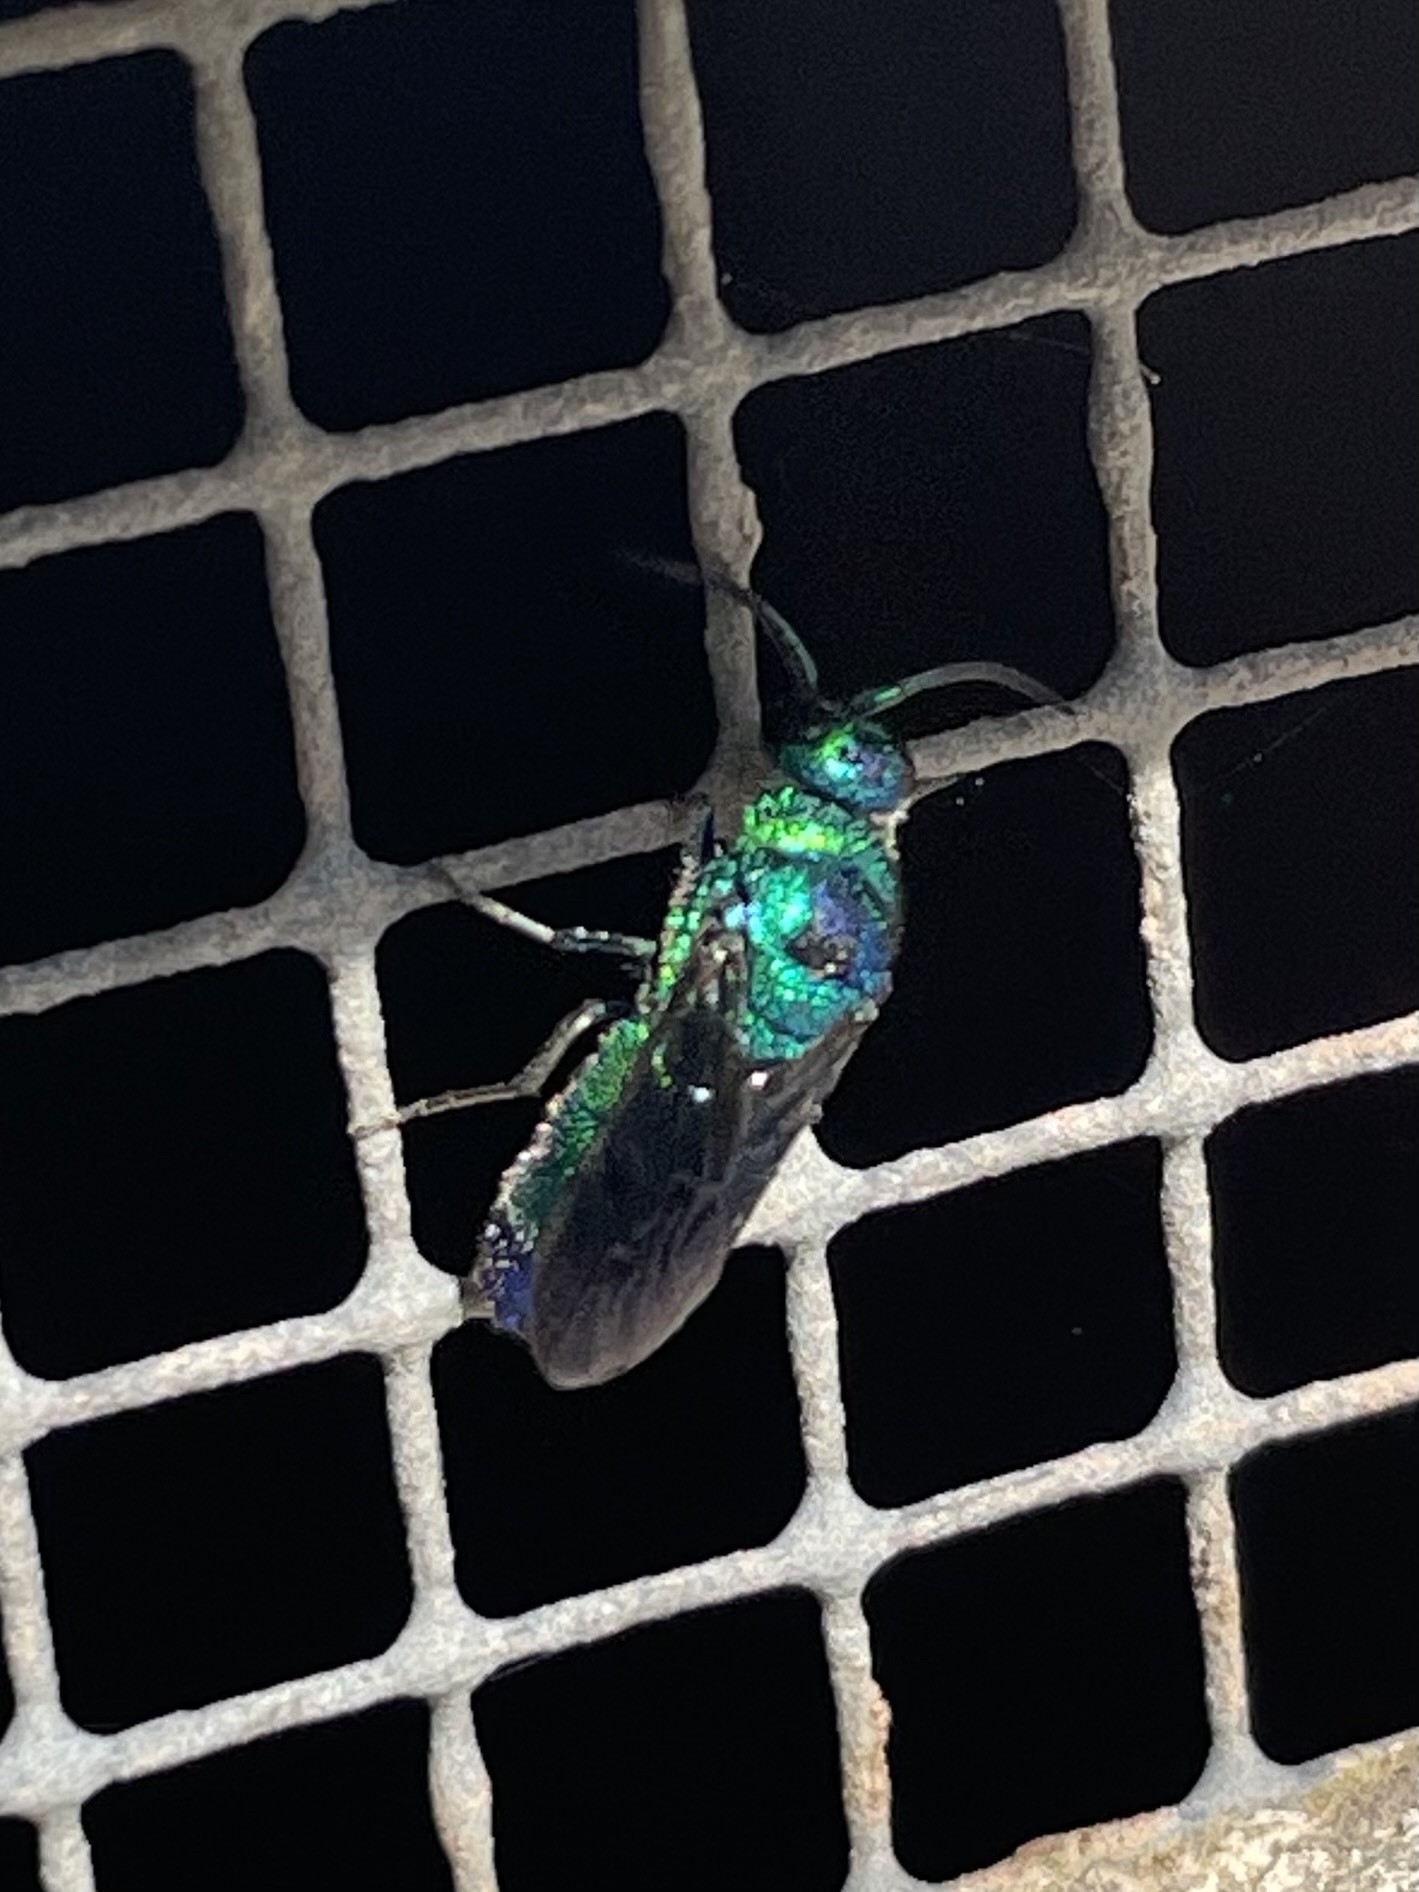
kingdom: Animalia
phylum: Arthropoda
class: Insecta
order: Hymenoptera
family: Chrysididae
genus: Chrysis
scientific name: Chrysis angolensis
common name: Cuckoo wasp
